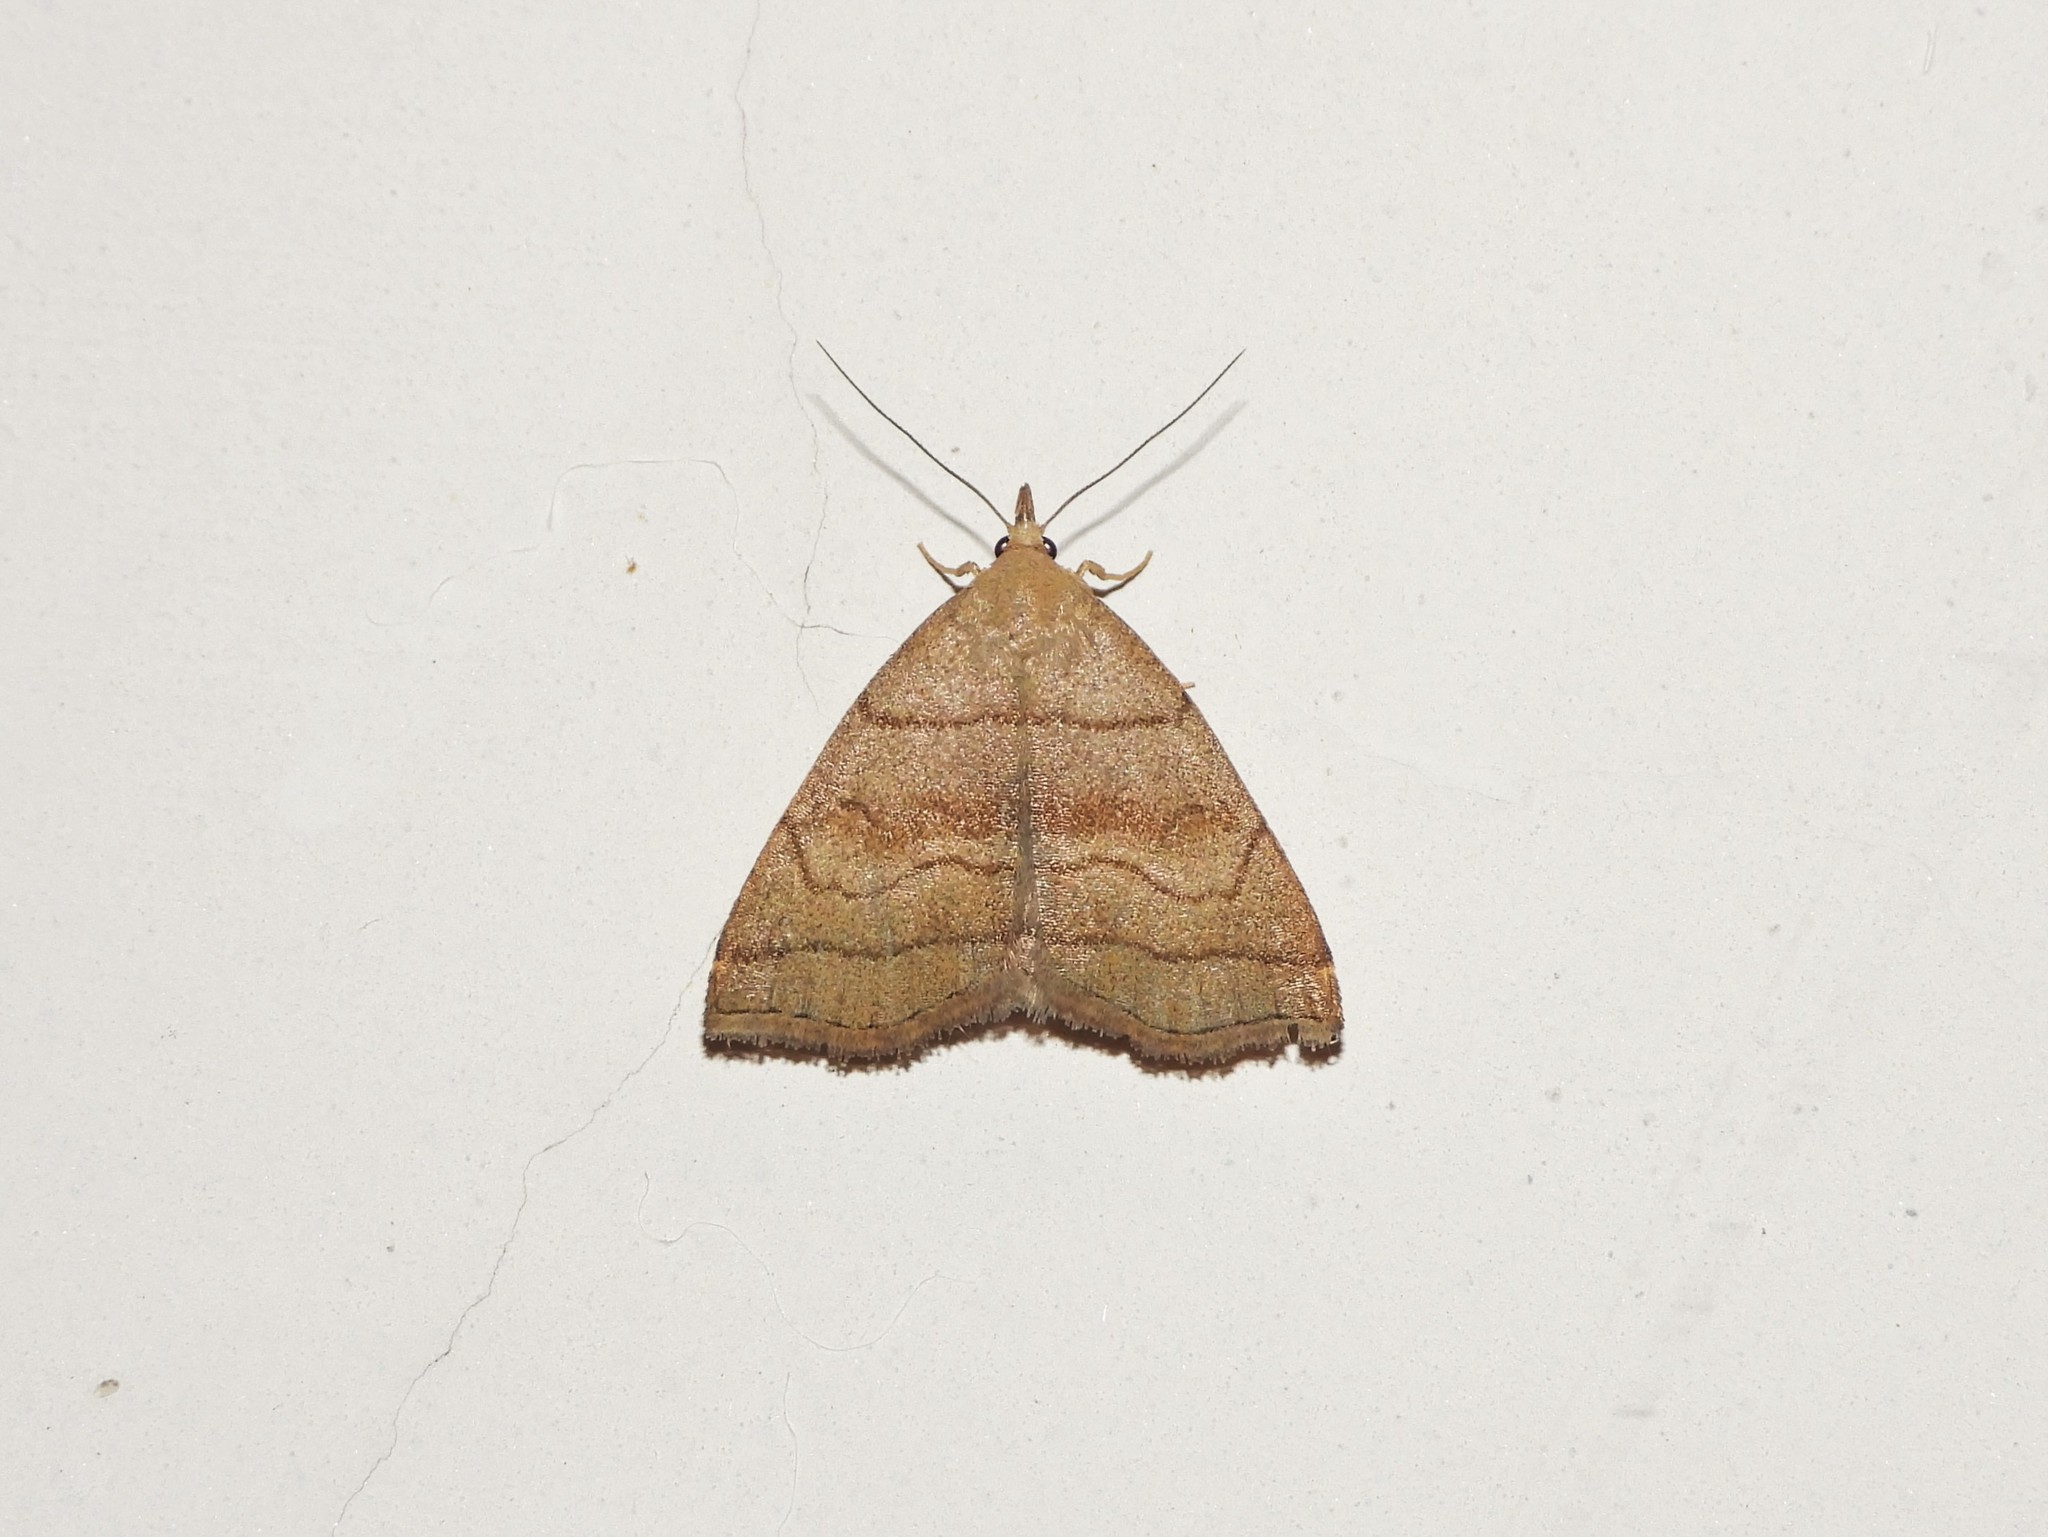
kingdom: Animalia
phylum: Arthropoda
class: Insecta
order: Lepidoptera
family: Erebidae
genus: Herminia
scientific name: Herminia tarsicrinalis
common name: Shaded fan-foot
